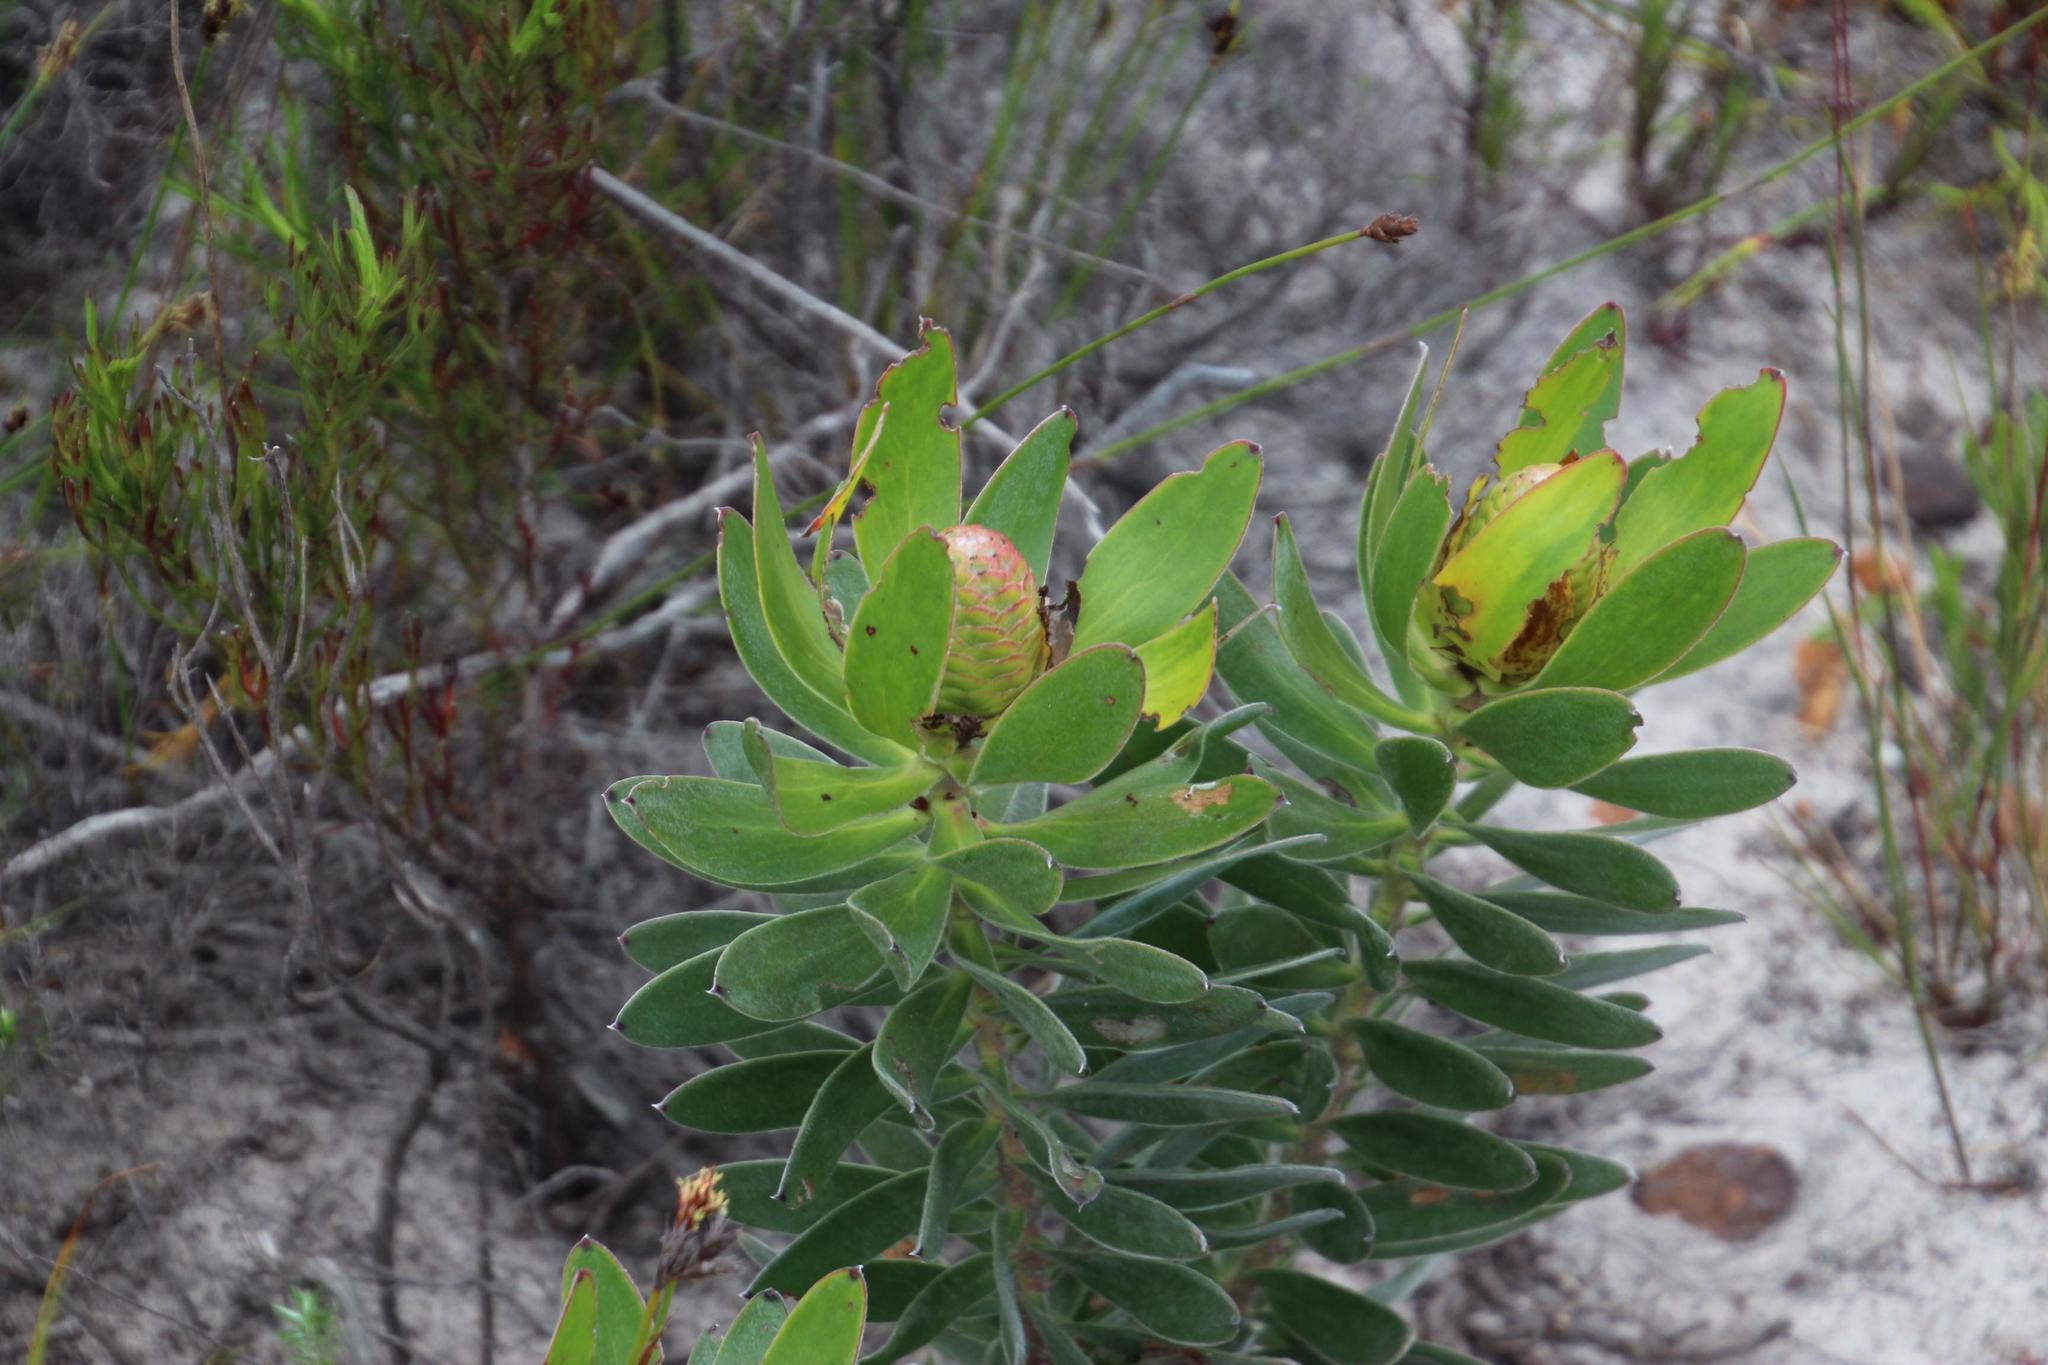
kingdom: Plantae
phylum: Tracheophyta
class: Magnoliopsida
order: Proteales
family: Proteaceae
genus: Leucadendron
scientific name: Leucadendron laureolum
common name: Golden sunshinebush
